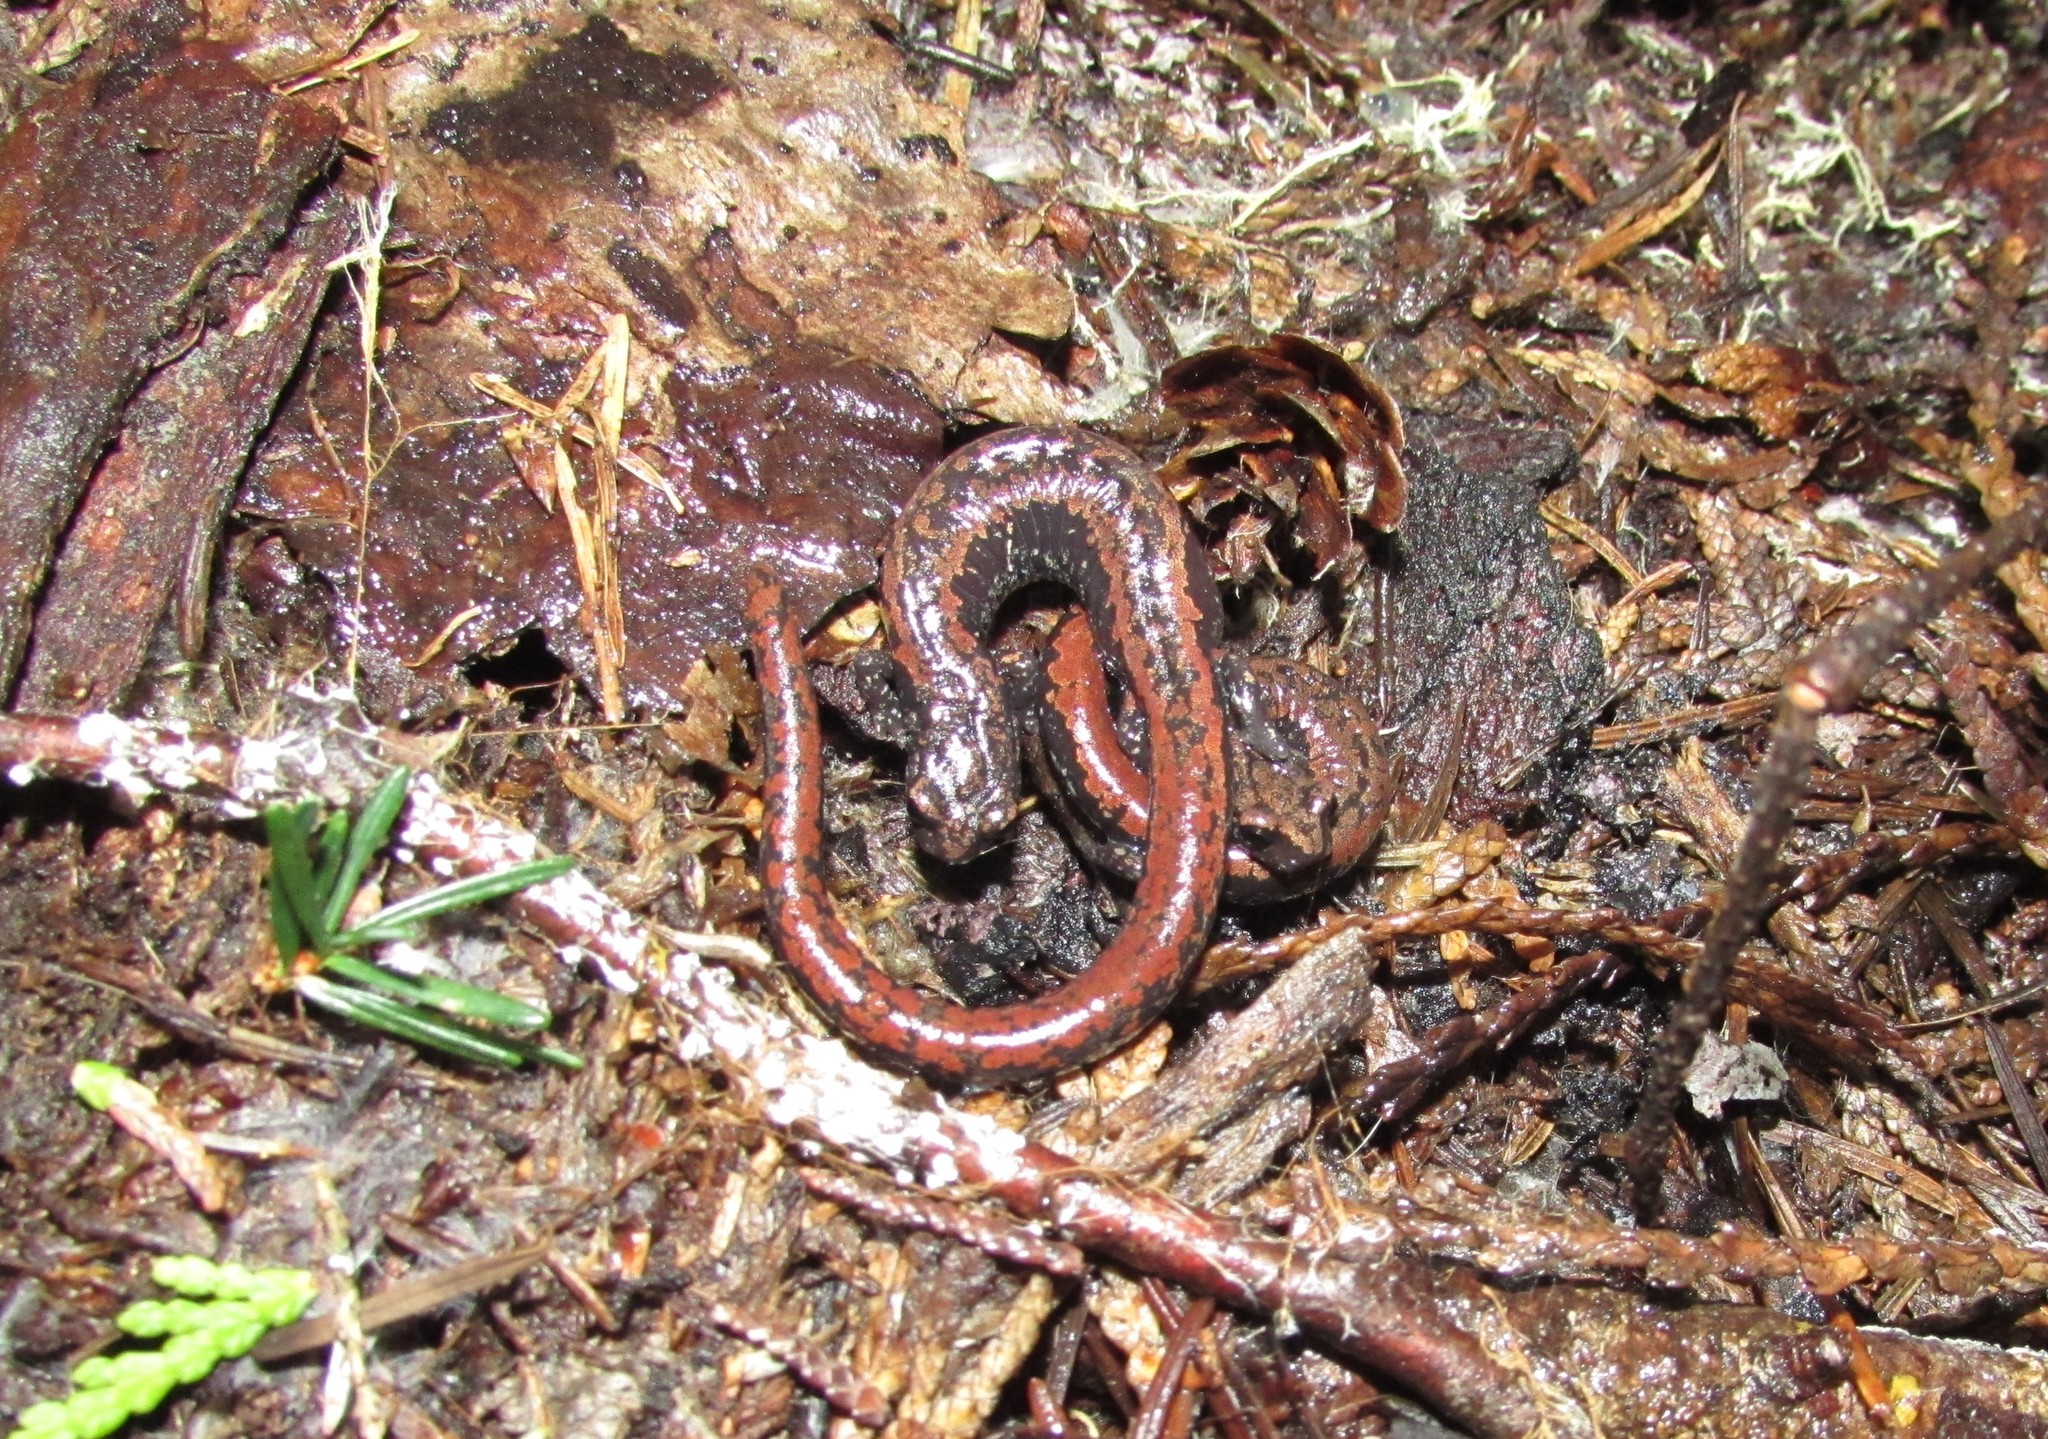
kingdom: Animalia
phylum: Chordata
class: Amphibia
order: Caudata
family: Plethodontidae
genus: Batrachoseps
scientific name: Batrachoseps wrighti
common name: Oregon slender salamander
